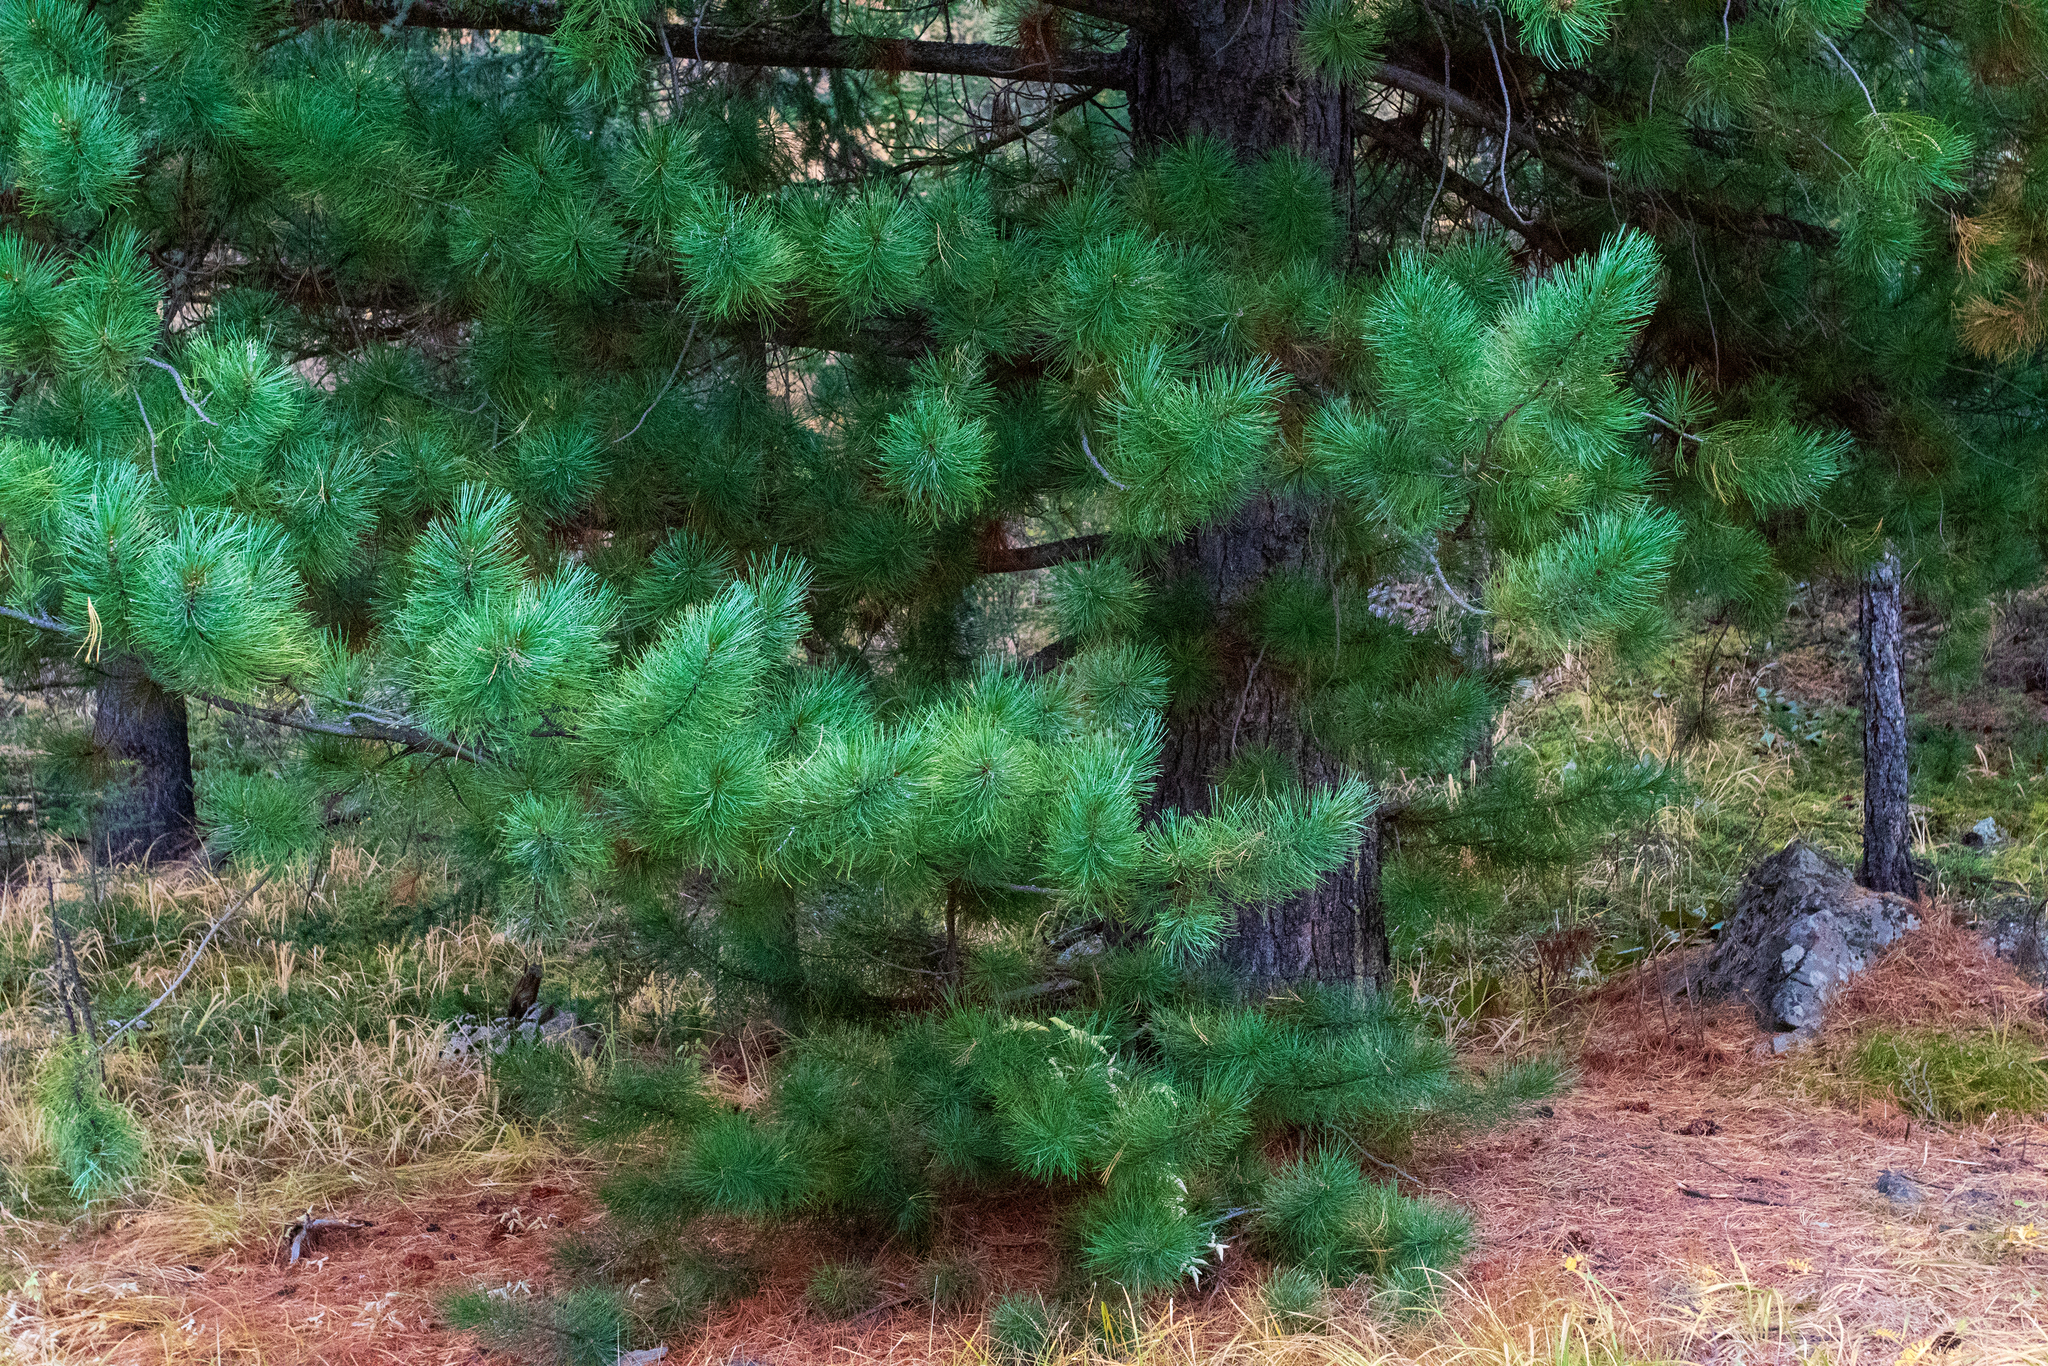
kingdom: Plantae
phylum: Tracheophyta
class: Pinopsida
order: Pinales
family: Pinaceae
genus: Pinus
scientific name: Pinus sibirica
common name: Siberian pine
